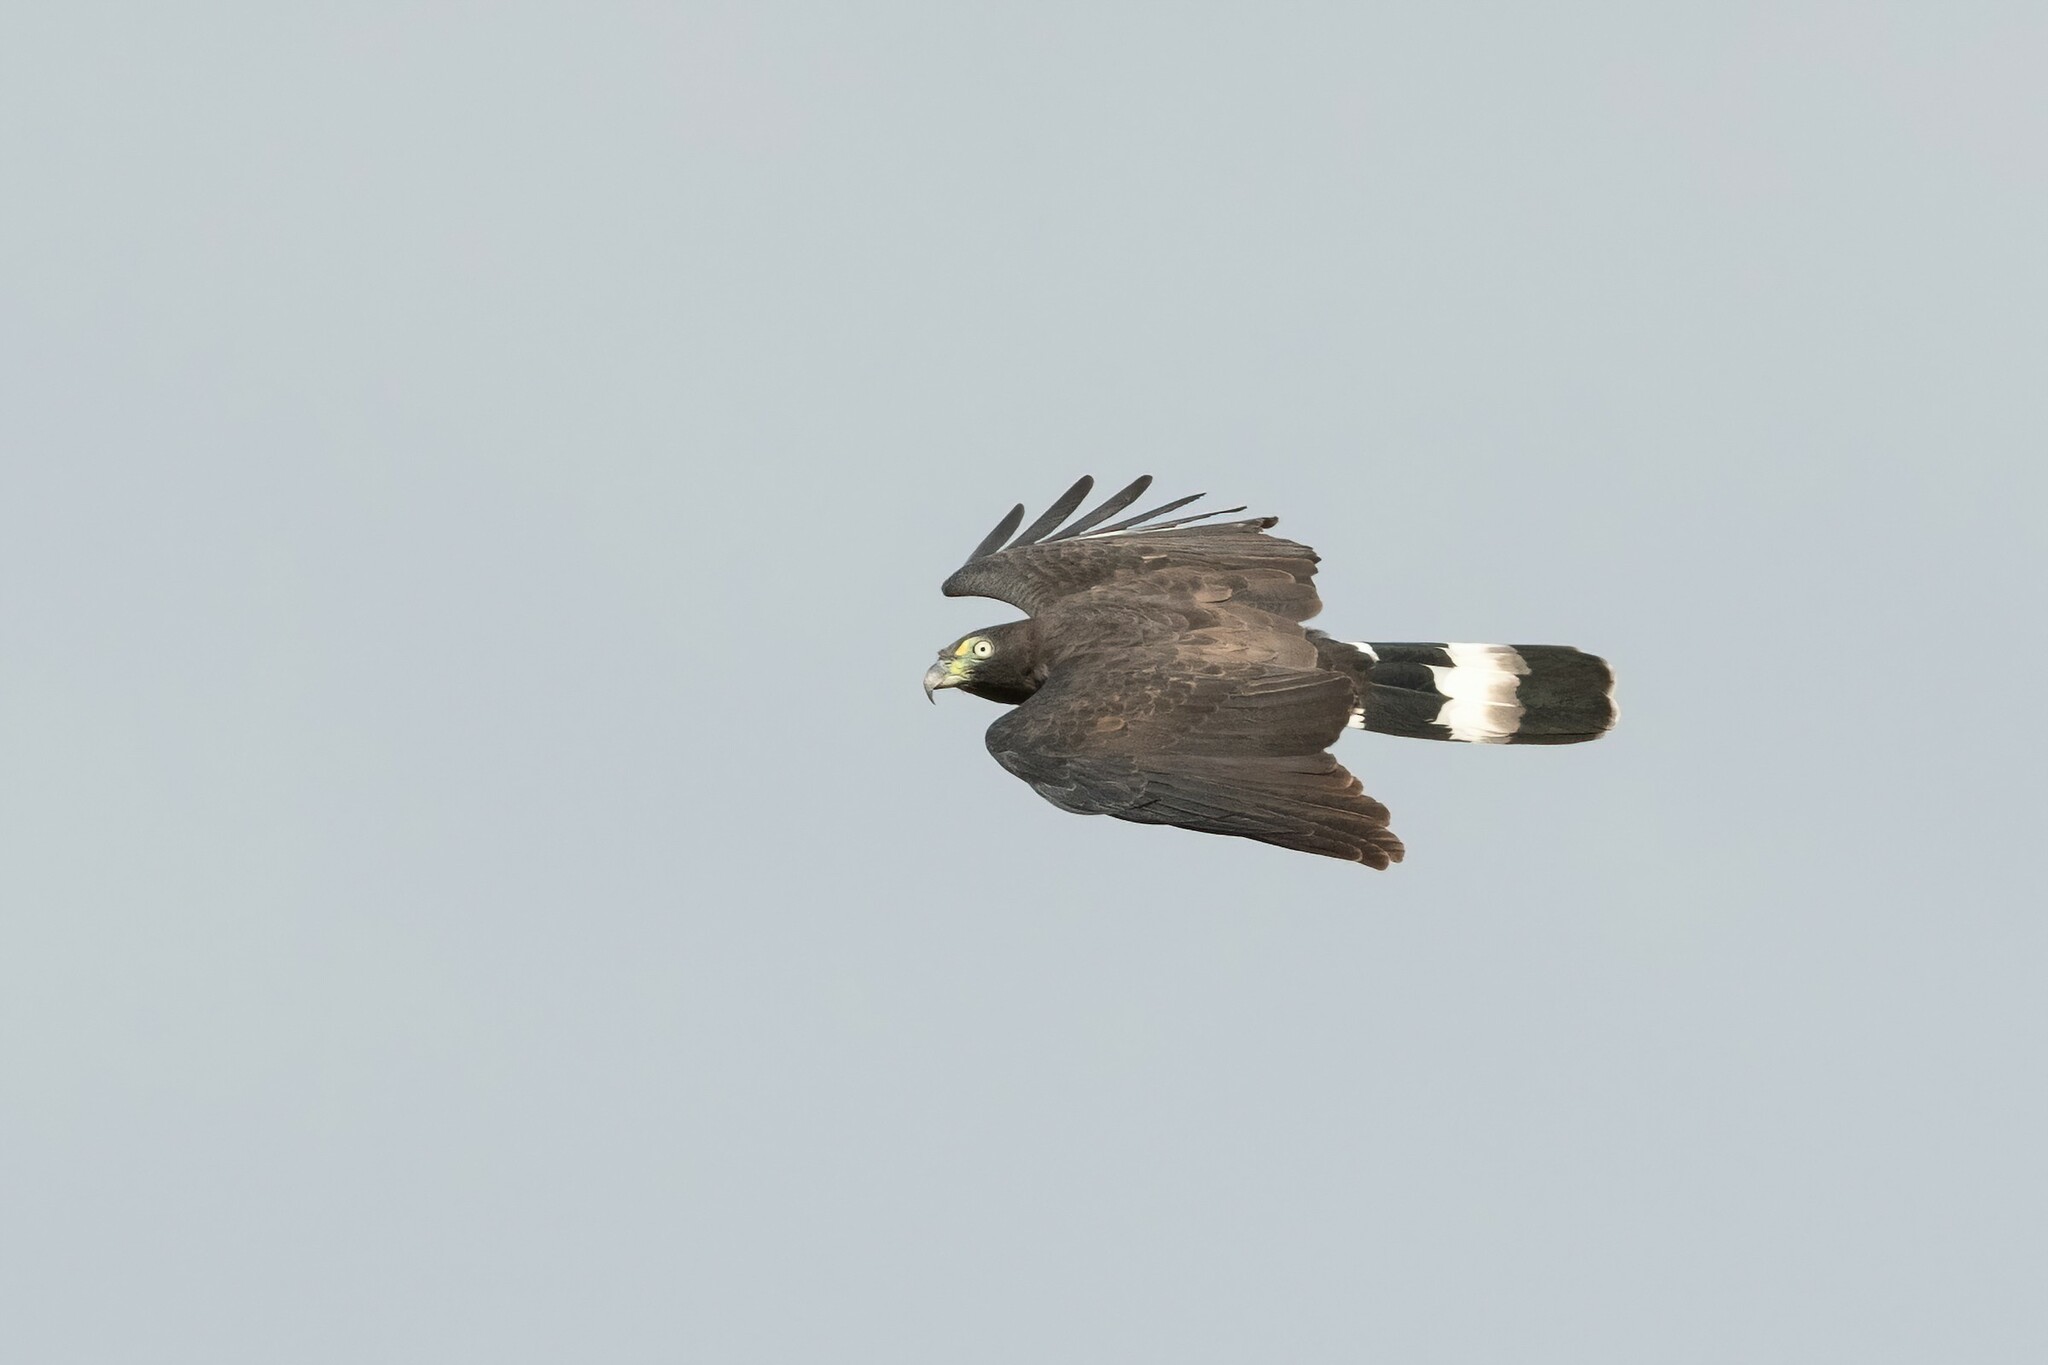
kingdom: Animalia
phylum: Chordata
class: Aves
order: Accipitriformes
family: Accipitridae
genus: Chondrohierax
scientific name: Chondrohierax uncinatus
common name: Hook-billed kite
